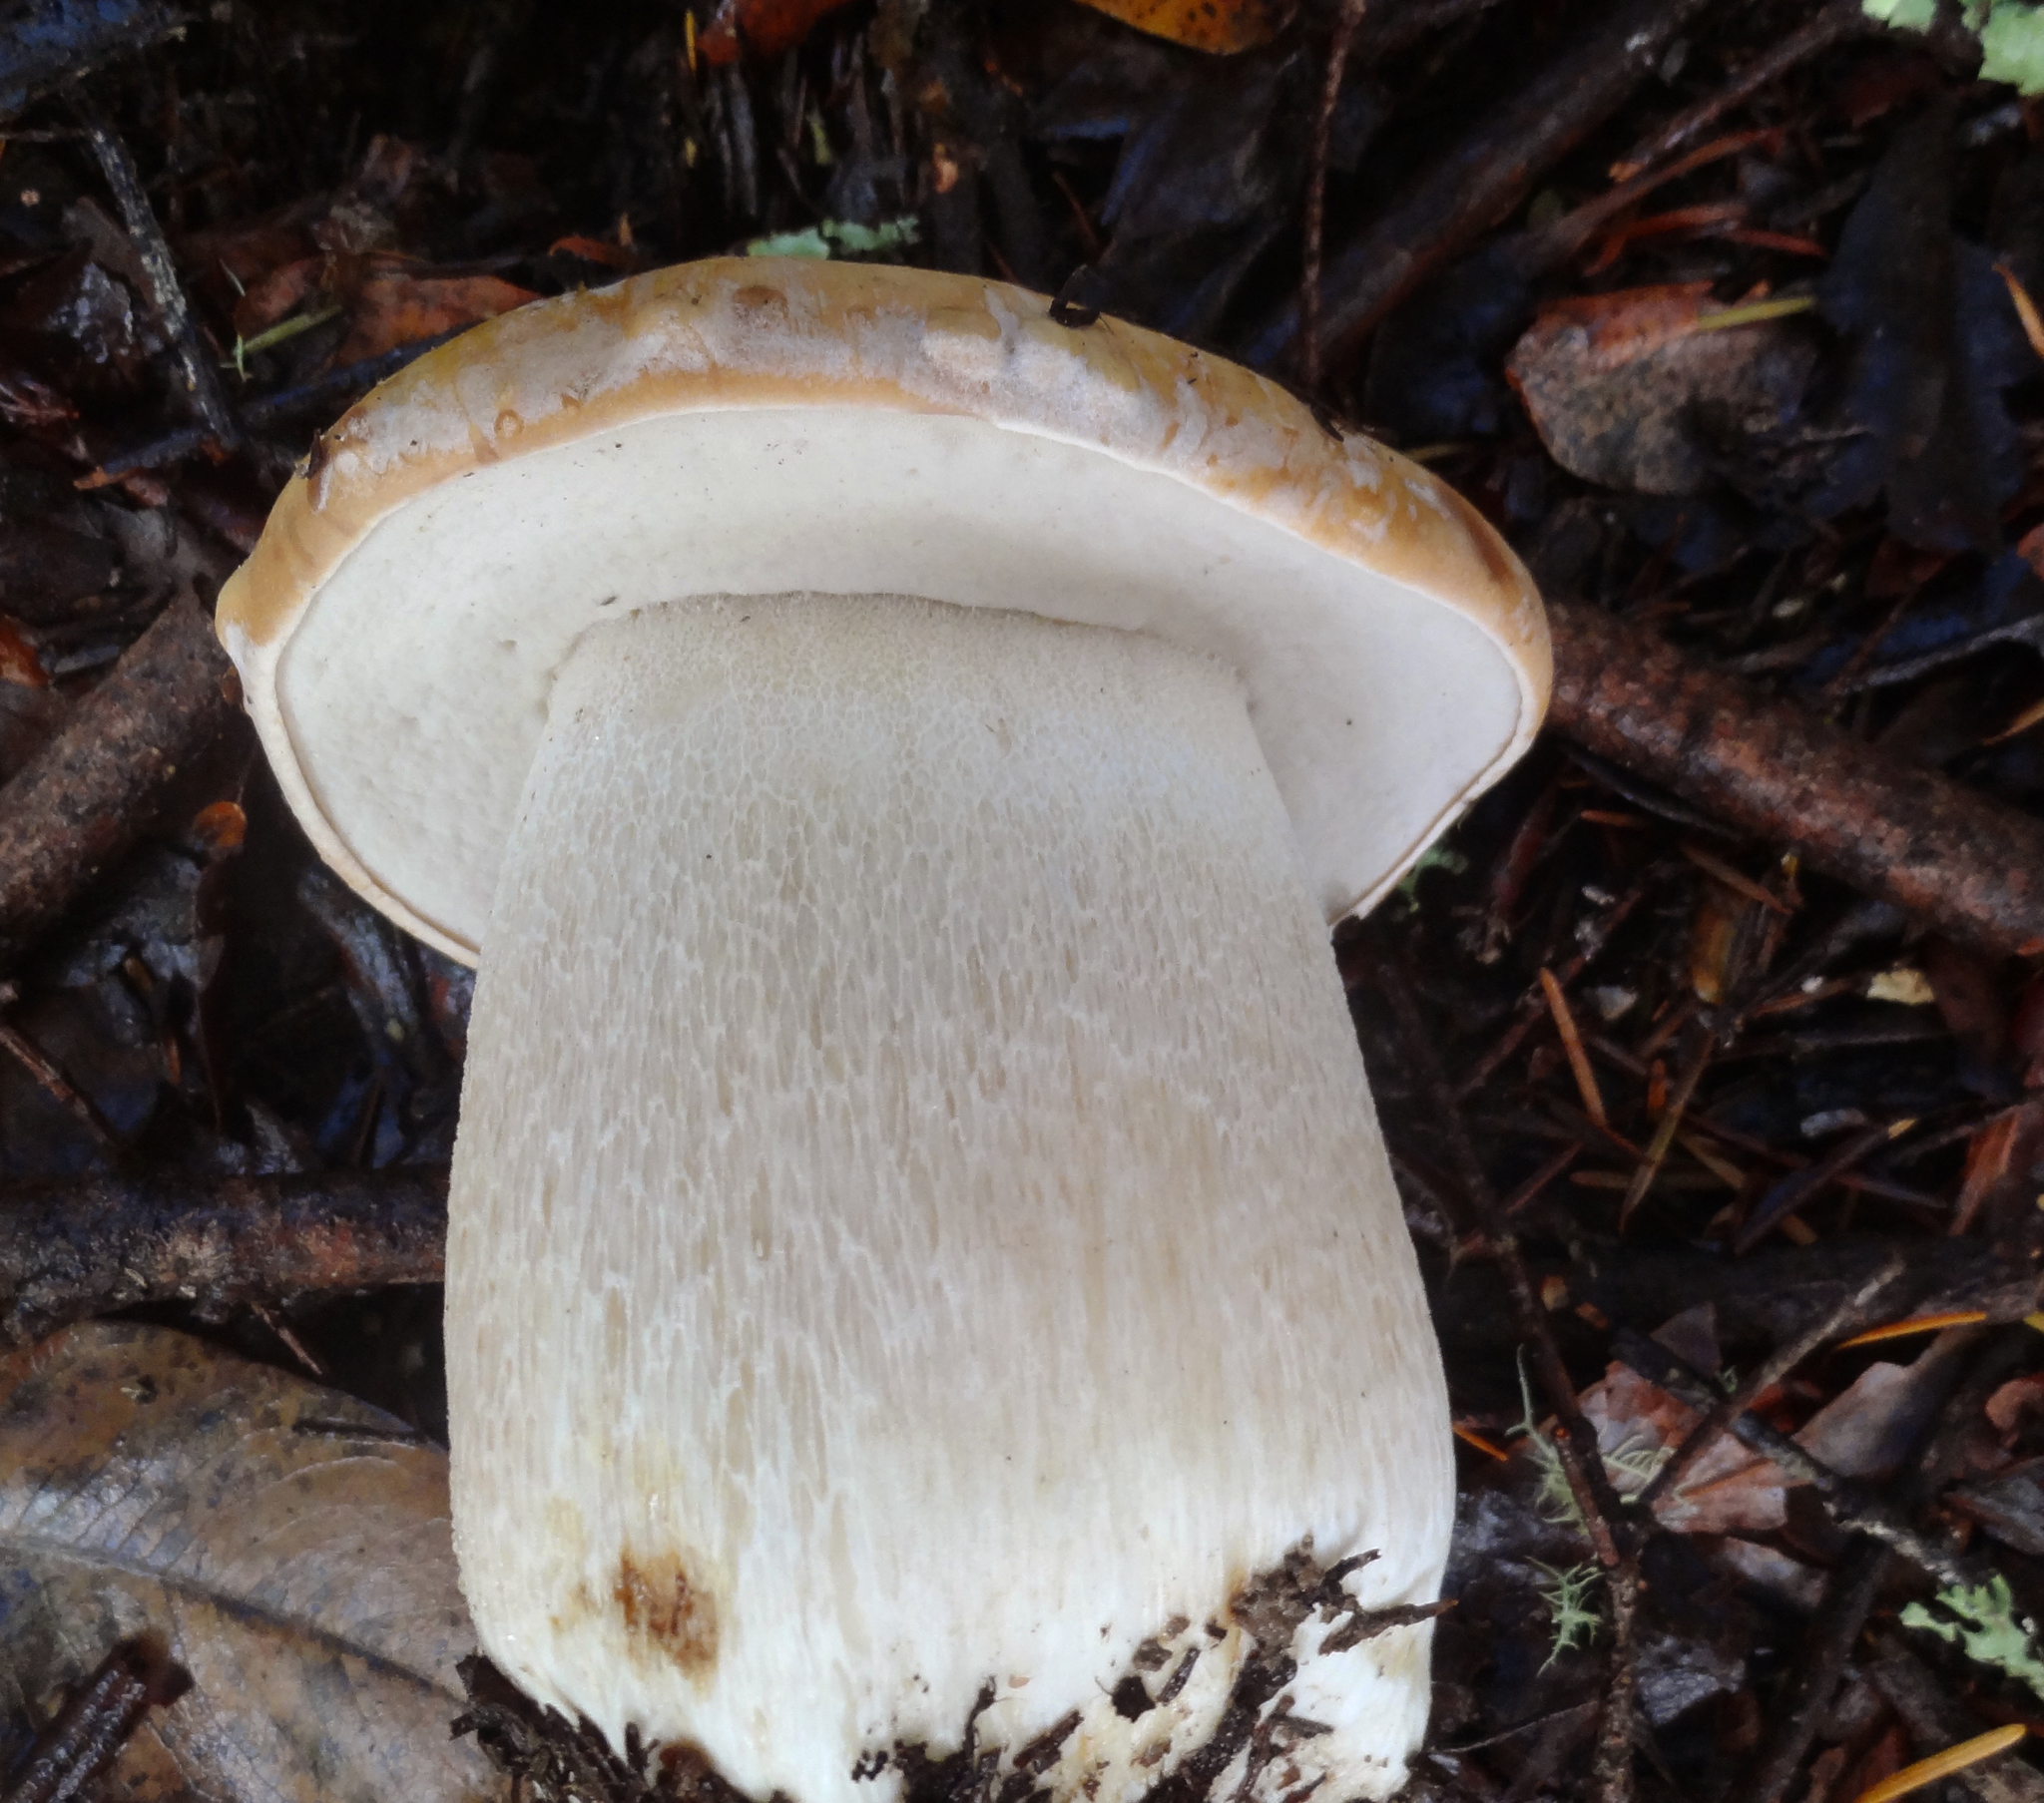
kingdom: Fungi
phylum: Basidiomycota
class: Agaricomycetes
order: Boletales
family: Boletaceae
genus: Boletus
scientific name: Boletus regineus
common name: Queen bolete
